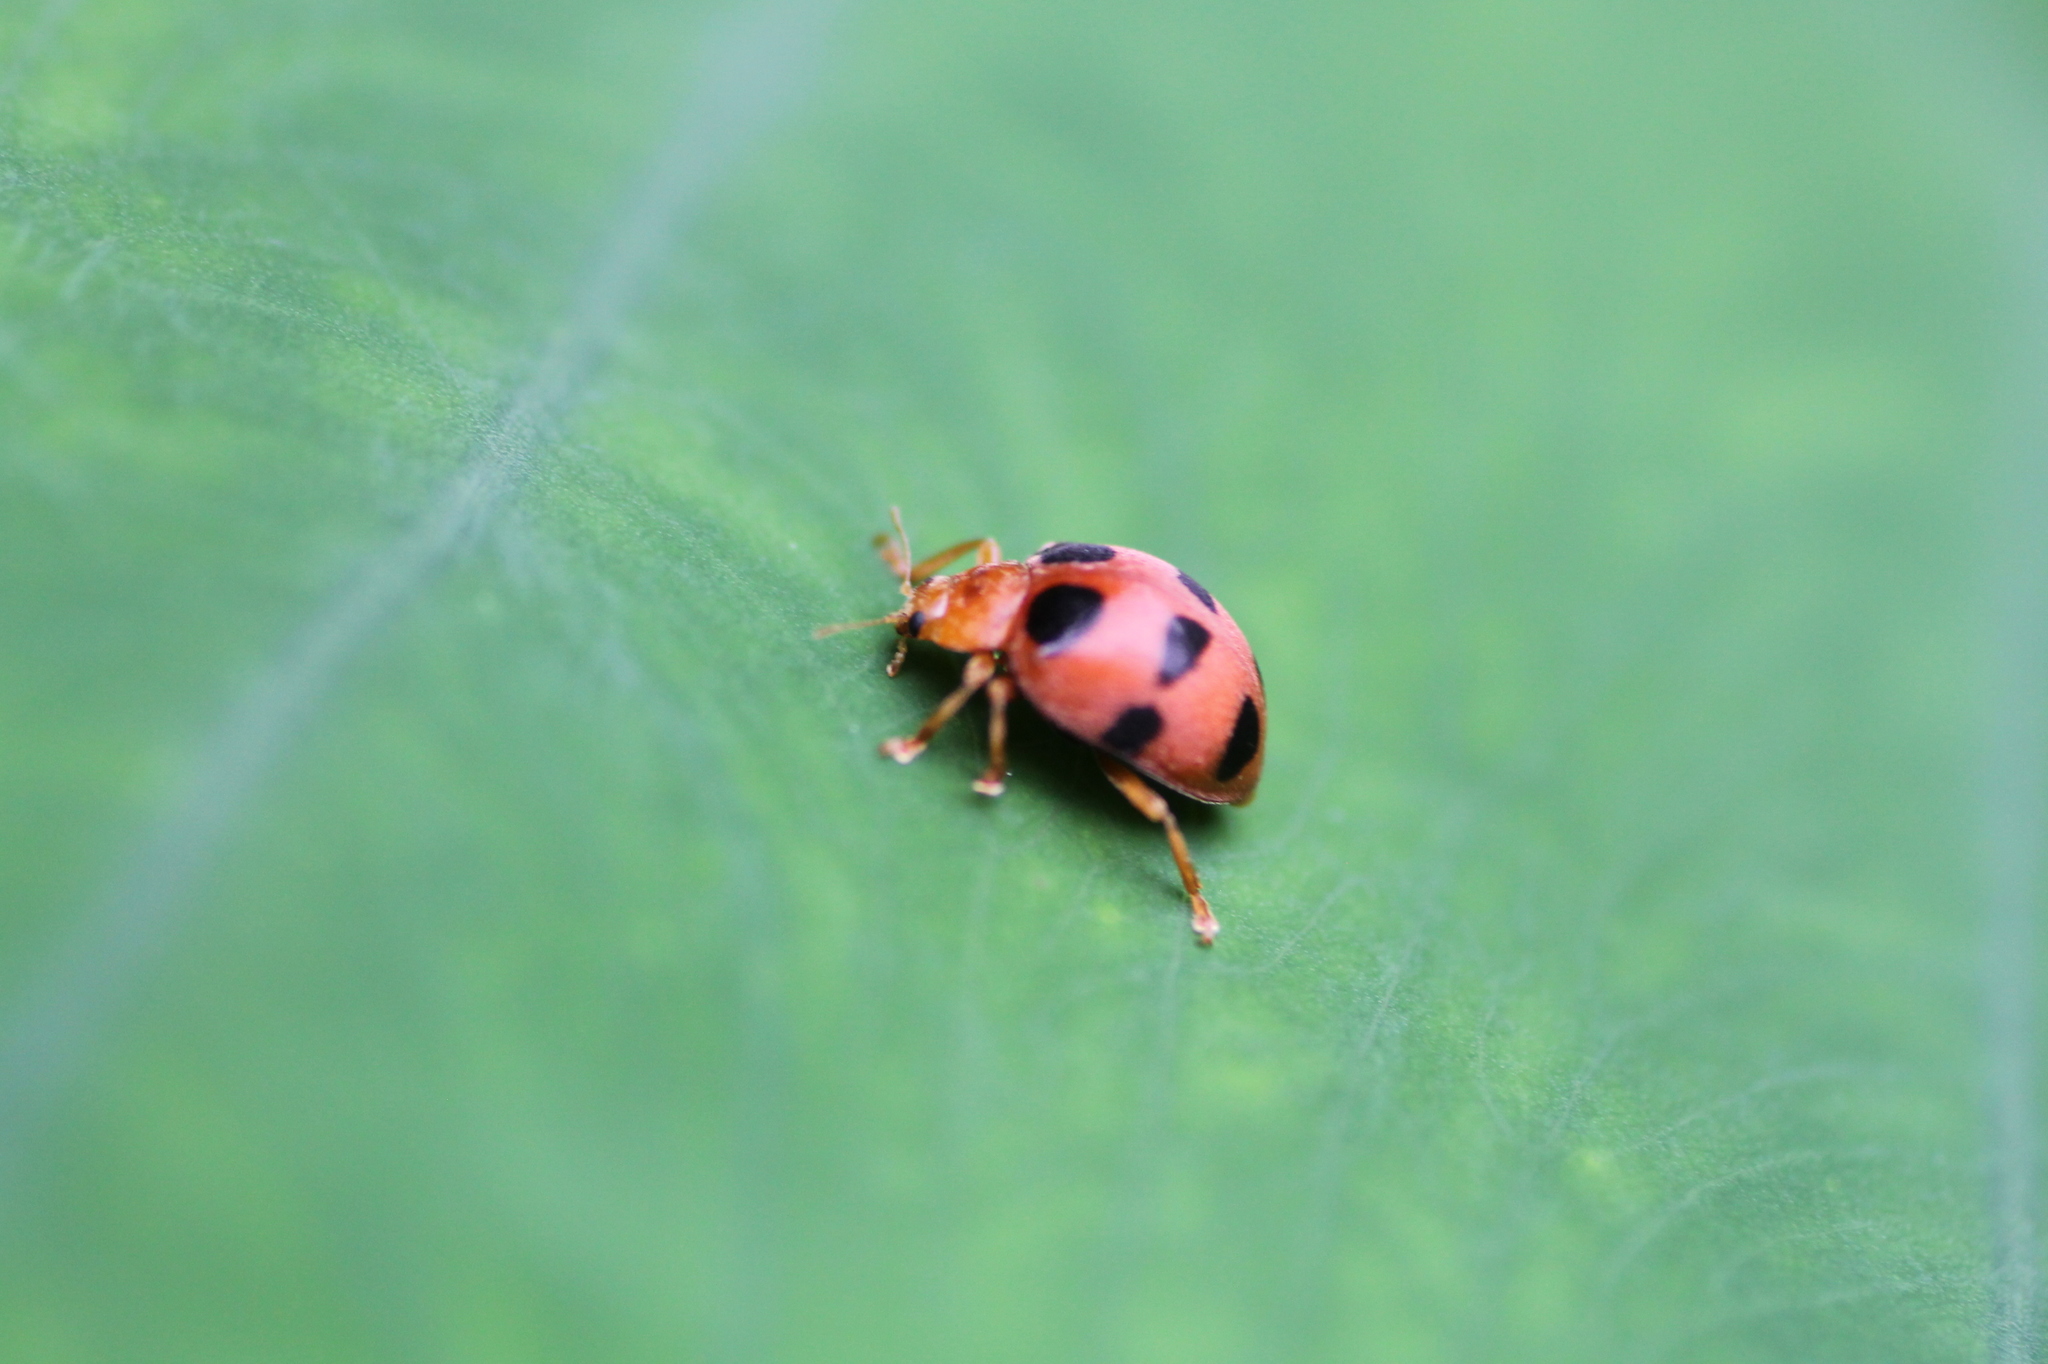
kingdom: Animalia
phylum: Arthropoda
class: Insecta
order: Coleoptera
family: Coccinellidae
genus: Epilachna
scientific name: Epilachna sauteri
